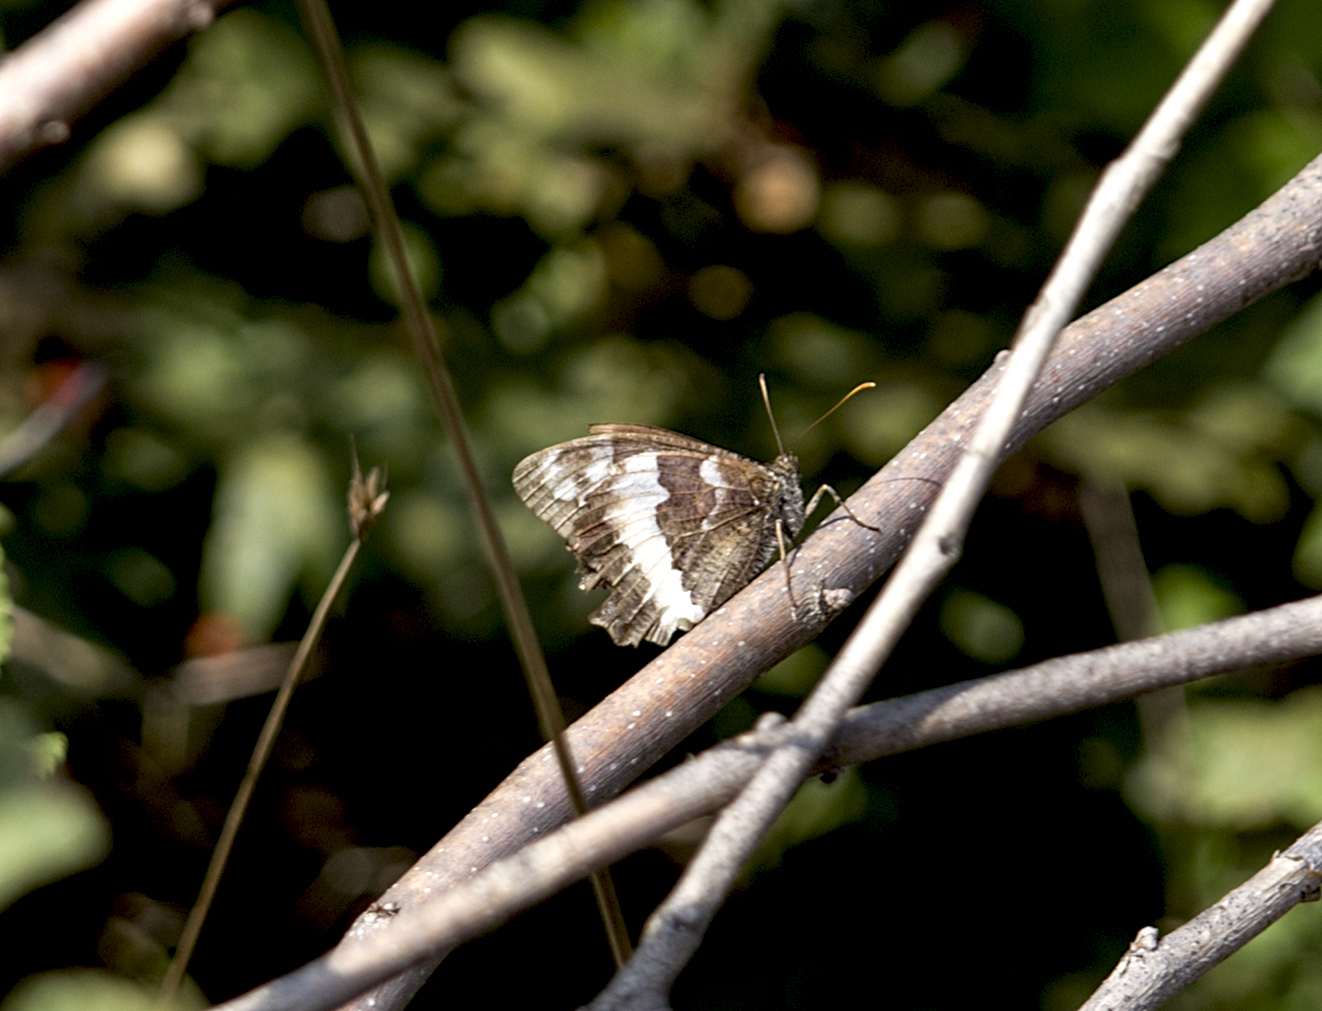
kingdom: Animalia
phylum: Arthropoda
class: Insecta
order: Lepidoptera
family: Lycaenidae
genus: Loweia
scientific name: Loweia tityrus
